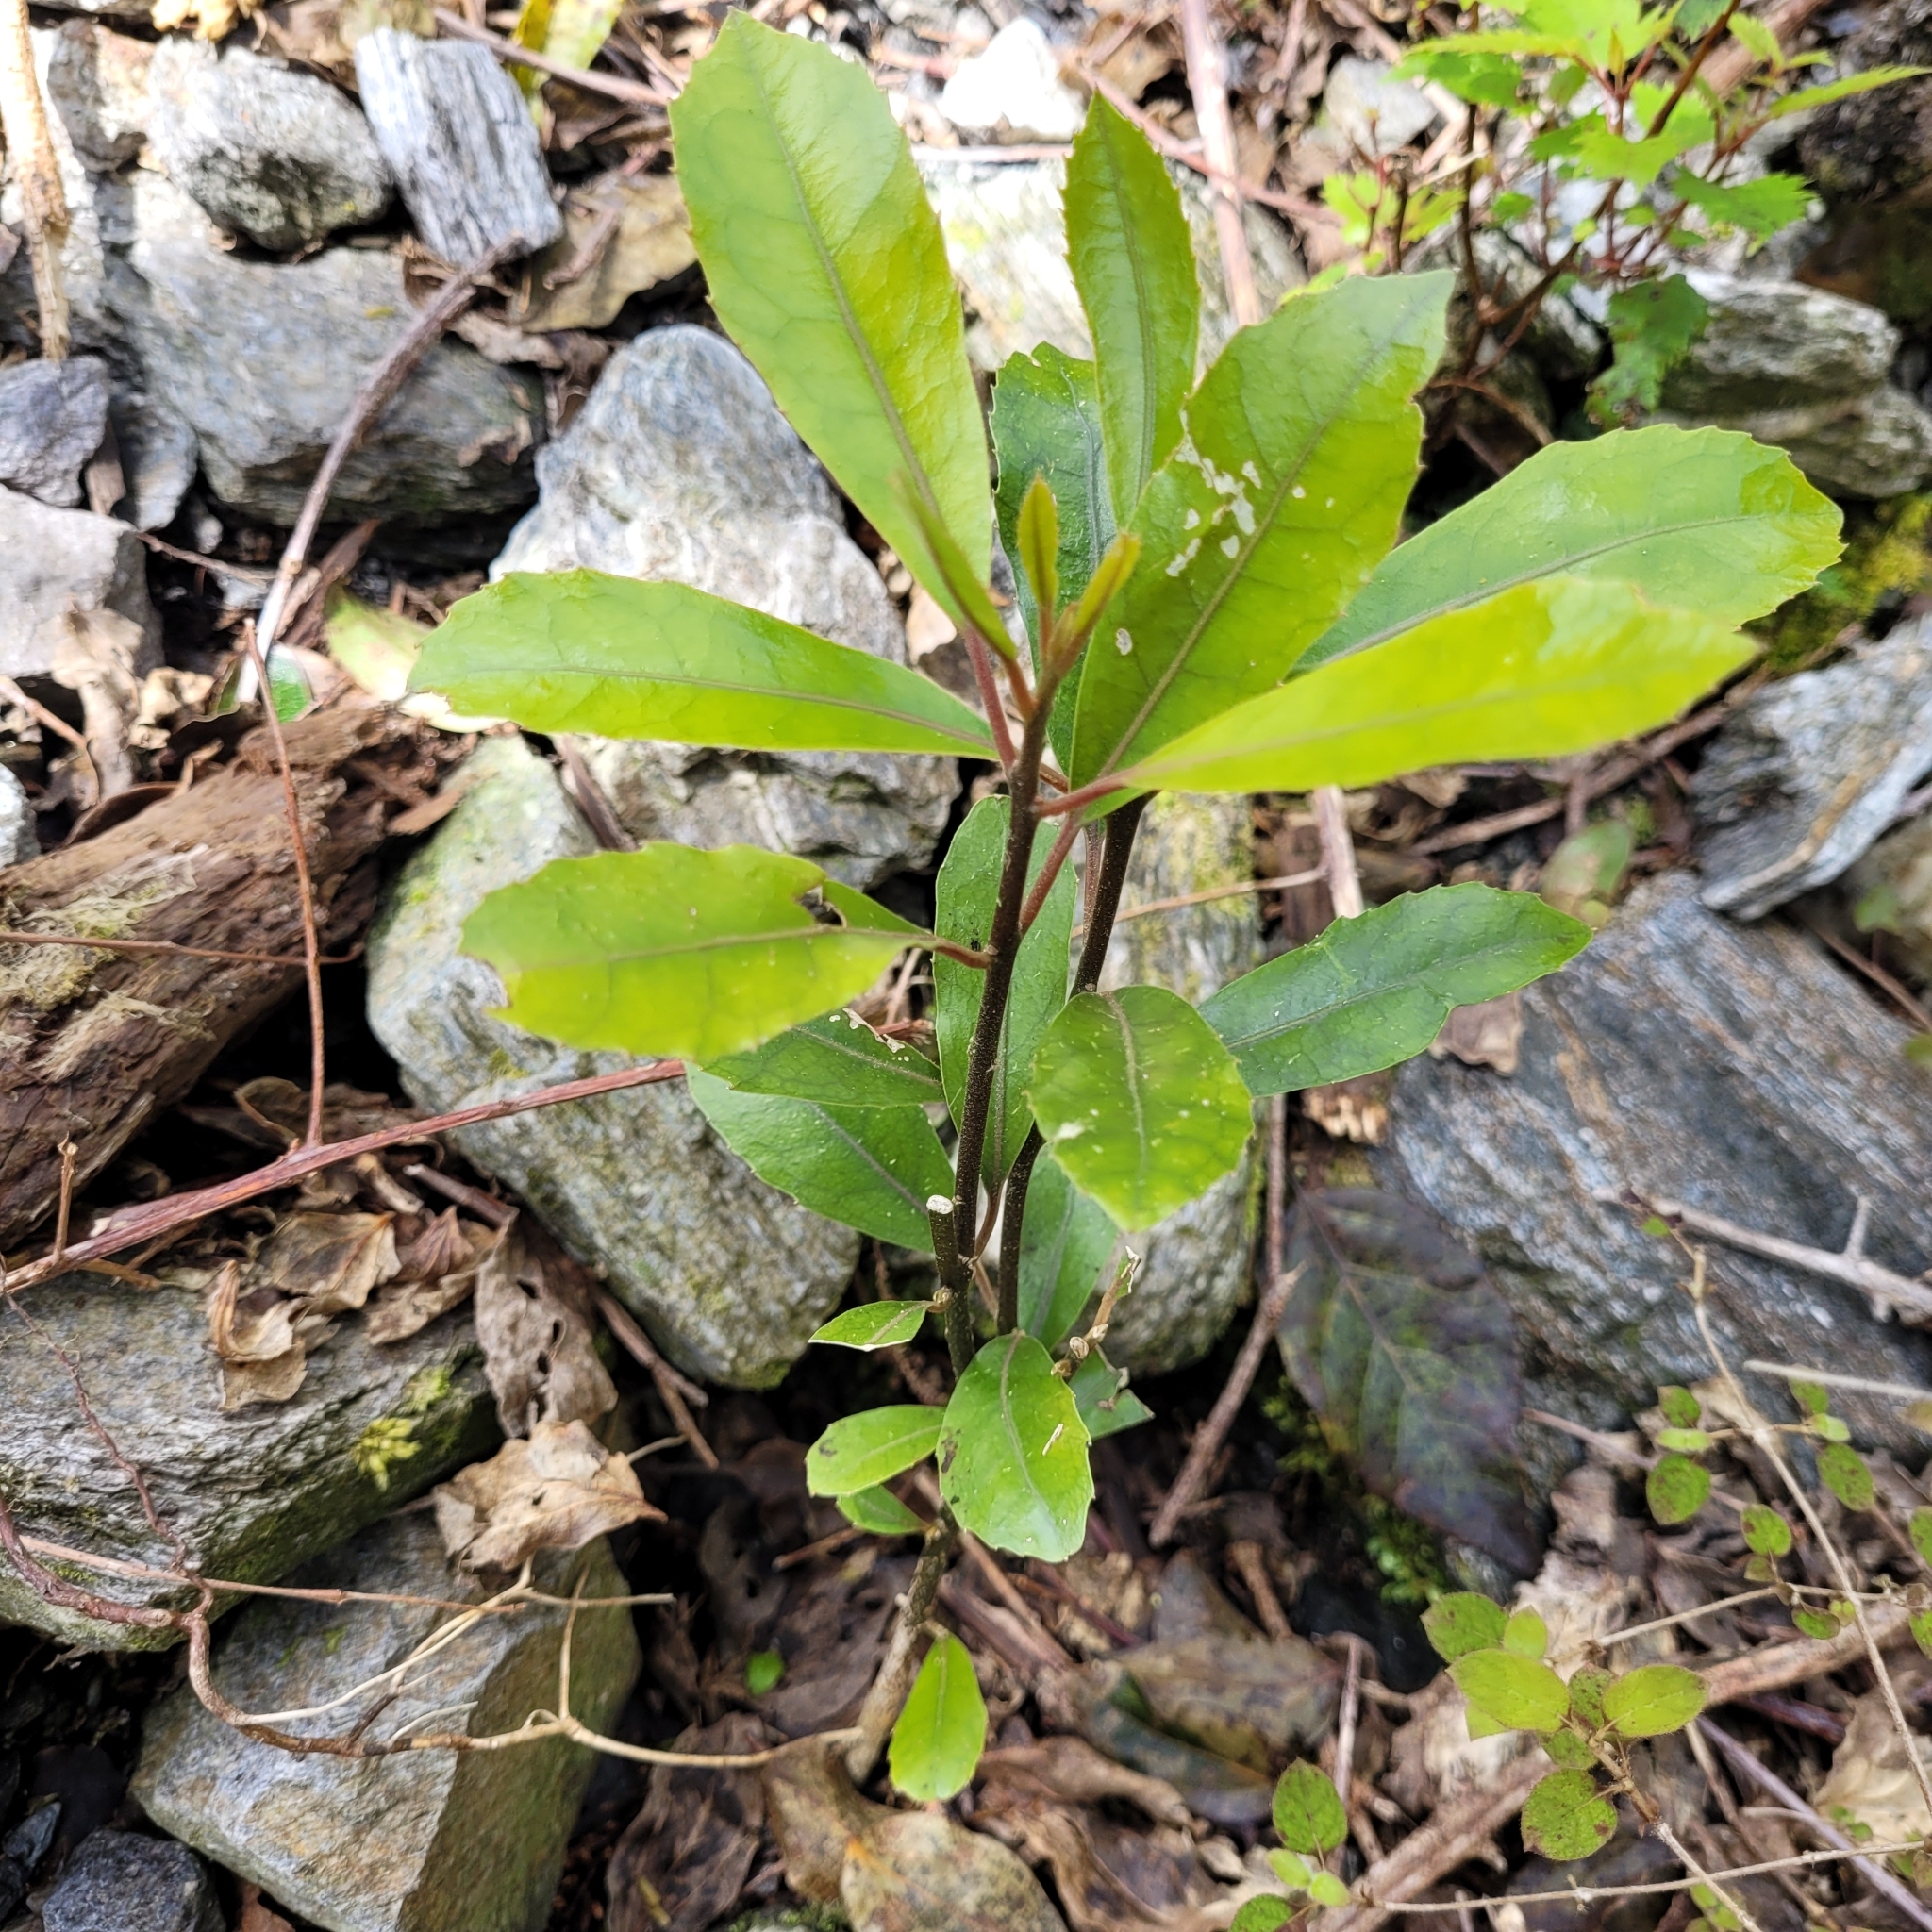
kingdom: Plantae
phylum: Tracheophyta
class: Magnoliopsida
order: Laurales
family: Monimiaceae
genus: Hedycarya
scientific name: Hedycarya arborea
